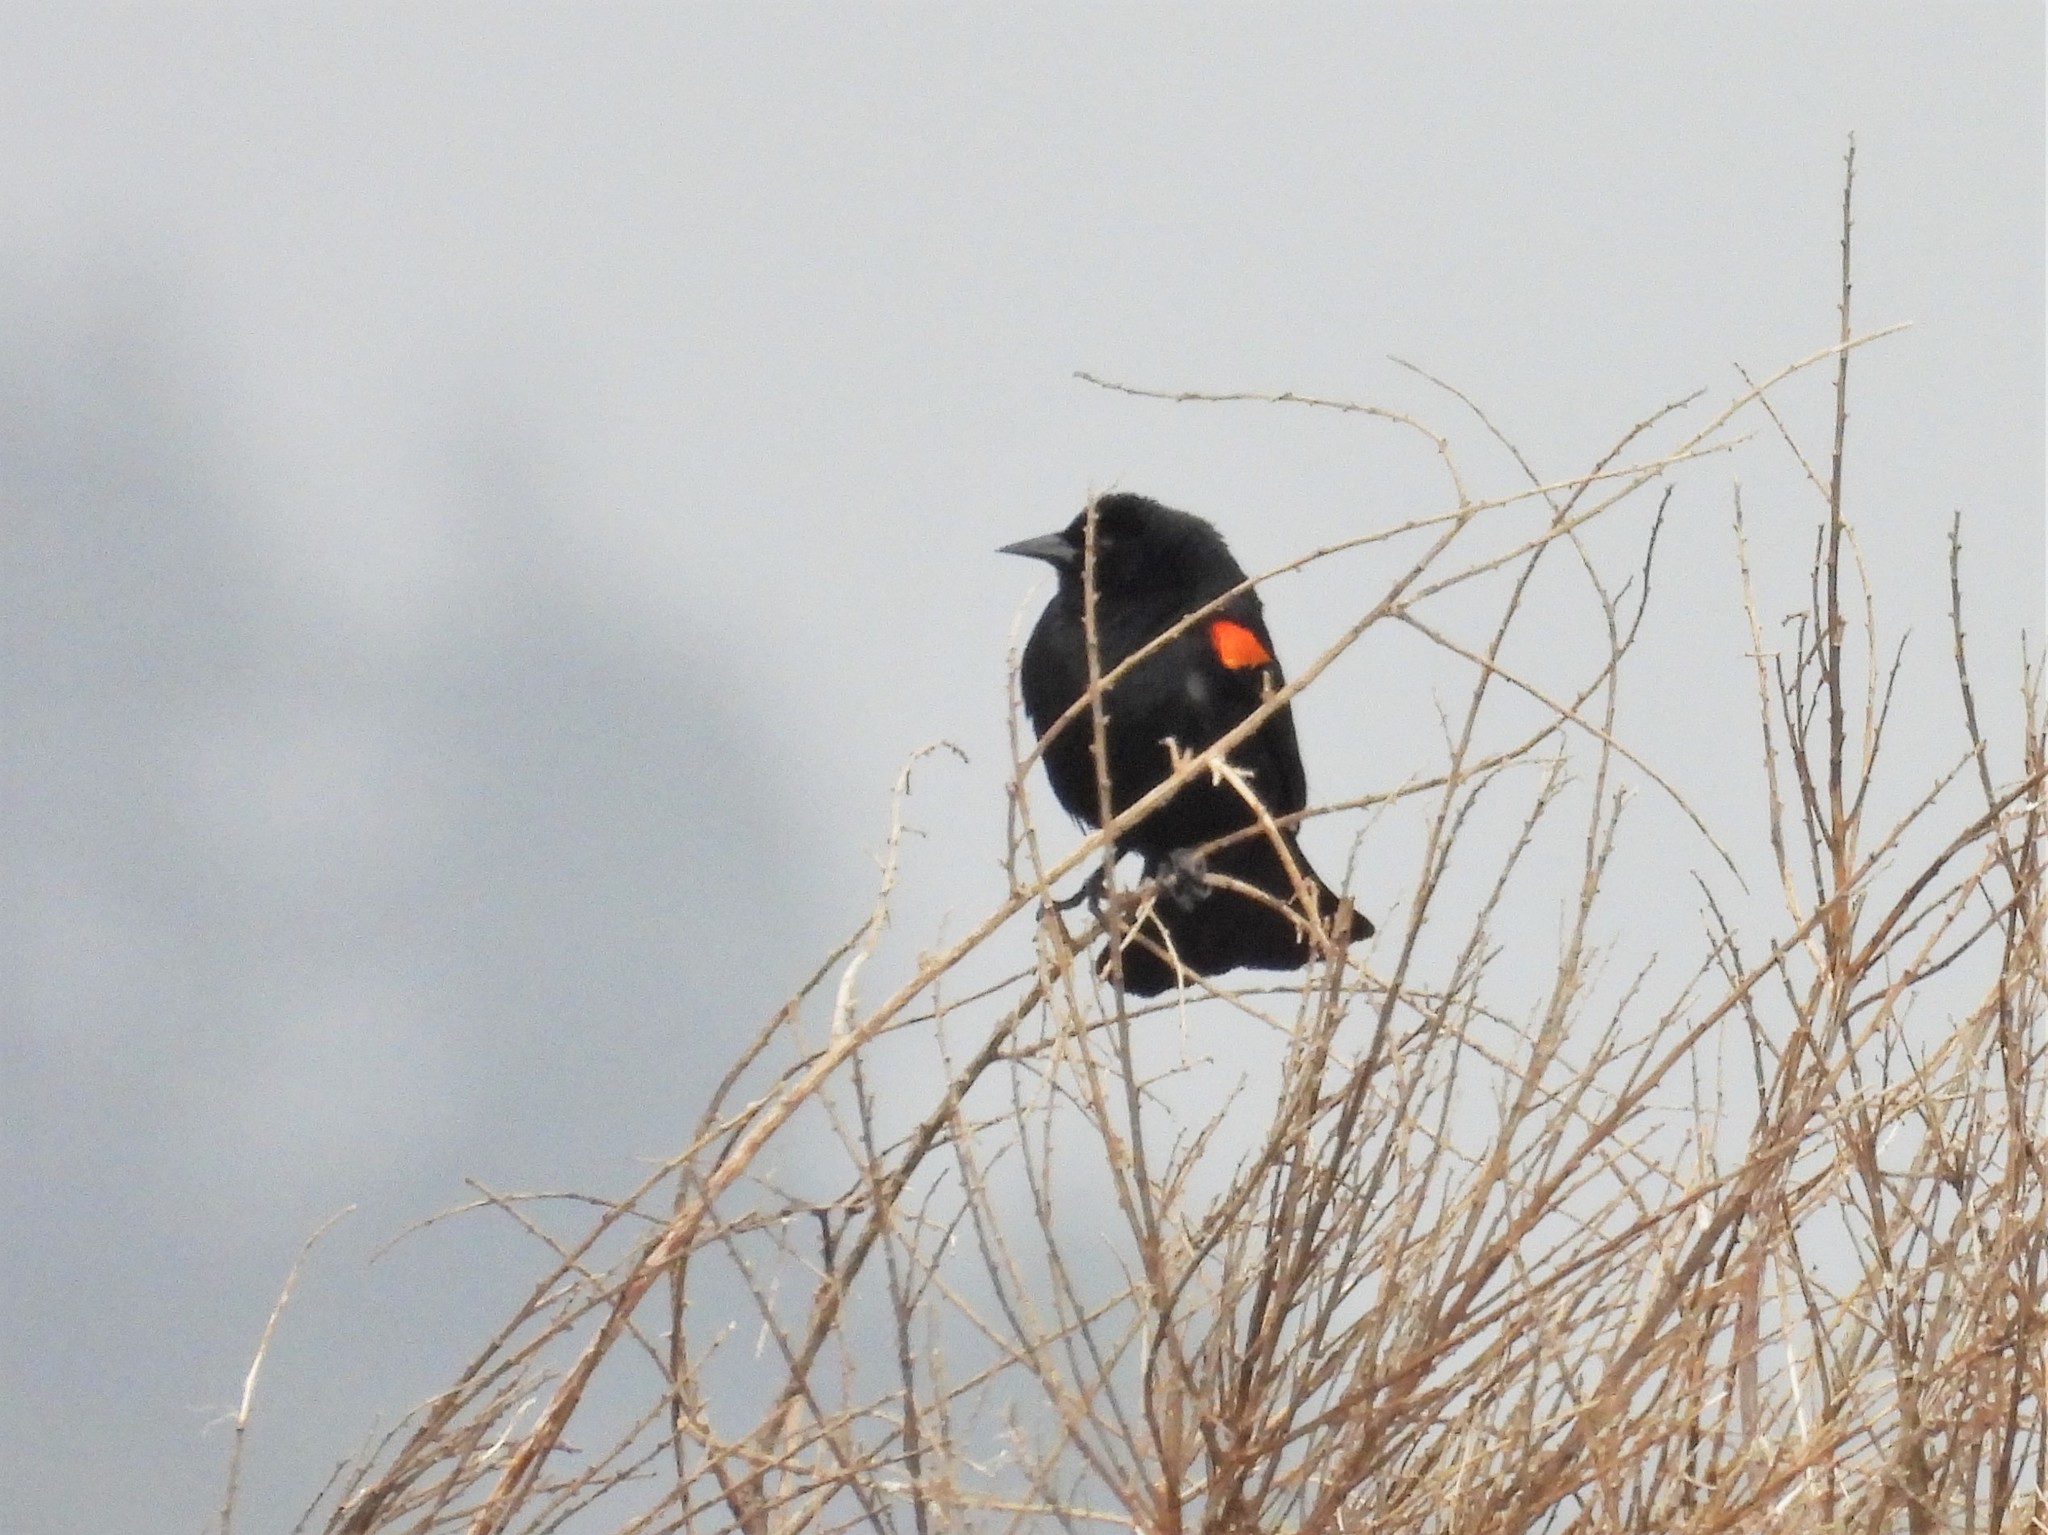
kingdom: Animalia
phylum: Chordata
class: Aves
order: Passeriformes
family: Icteridae
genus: Agelaius
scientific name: Agelaius phoeniceus
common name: Red-winged blackbird
